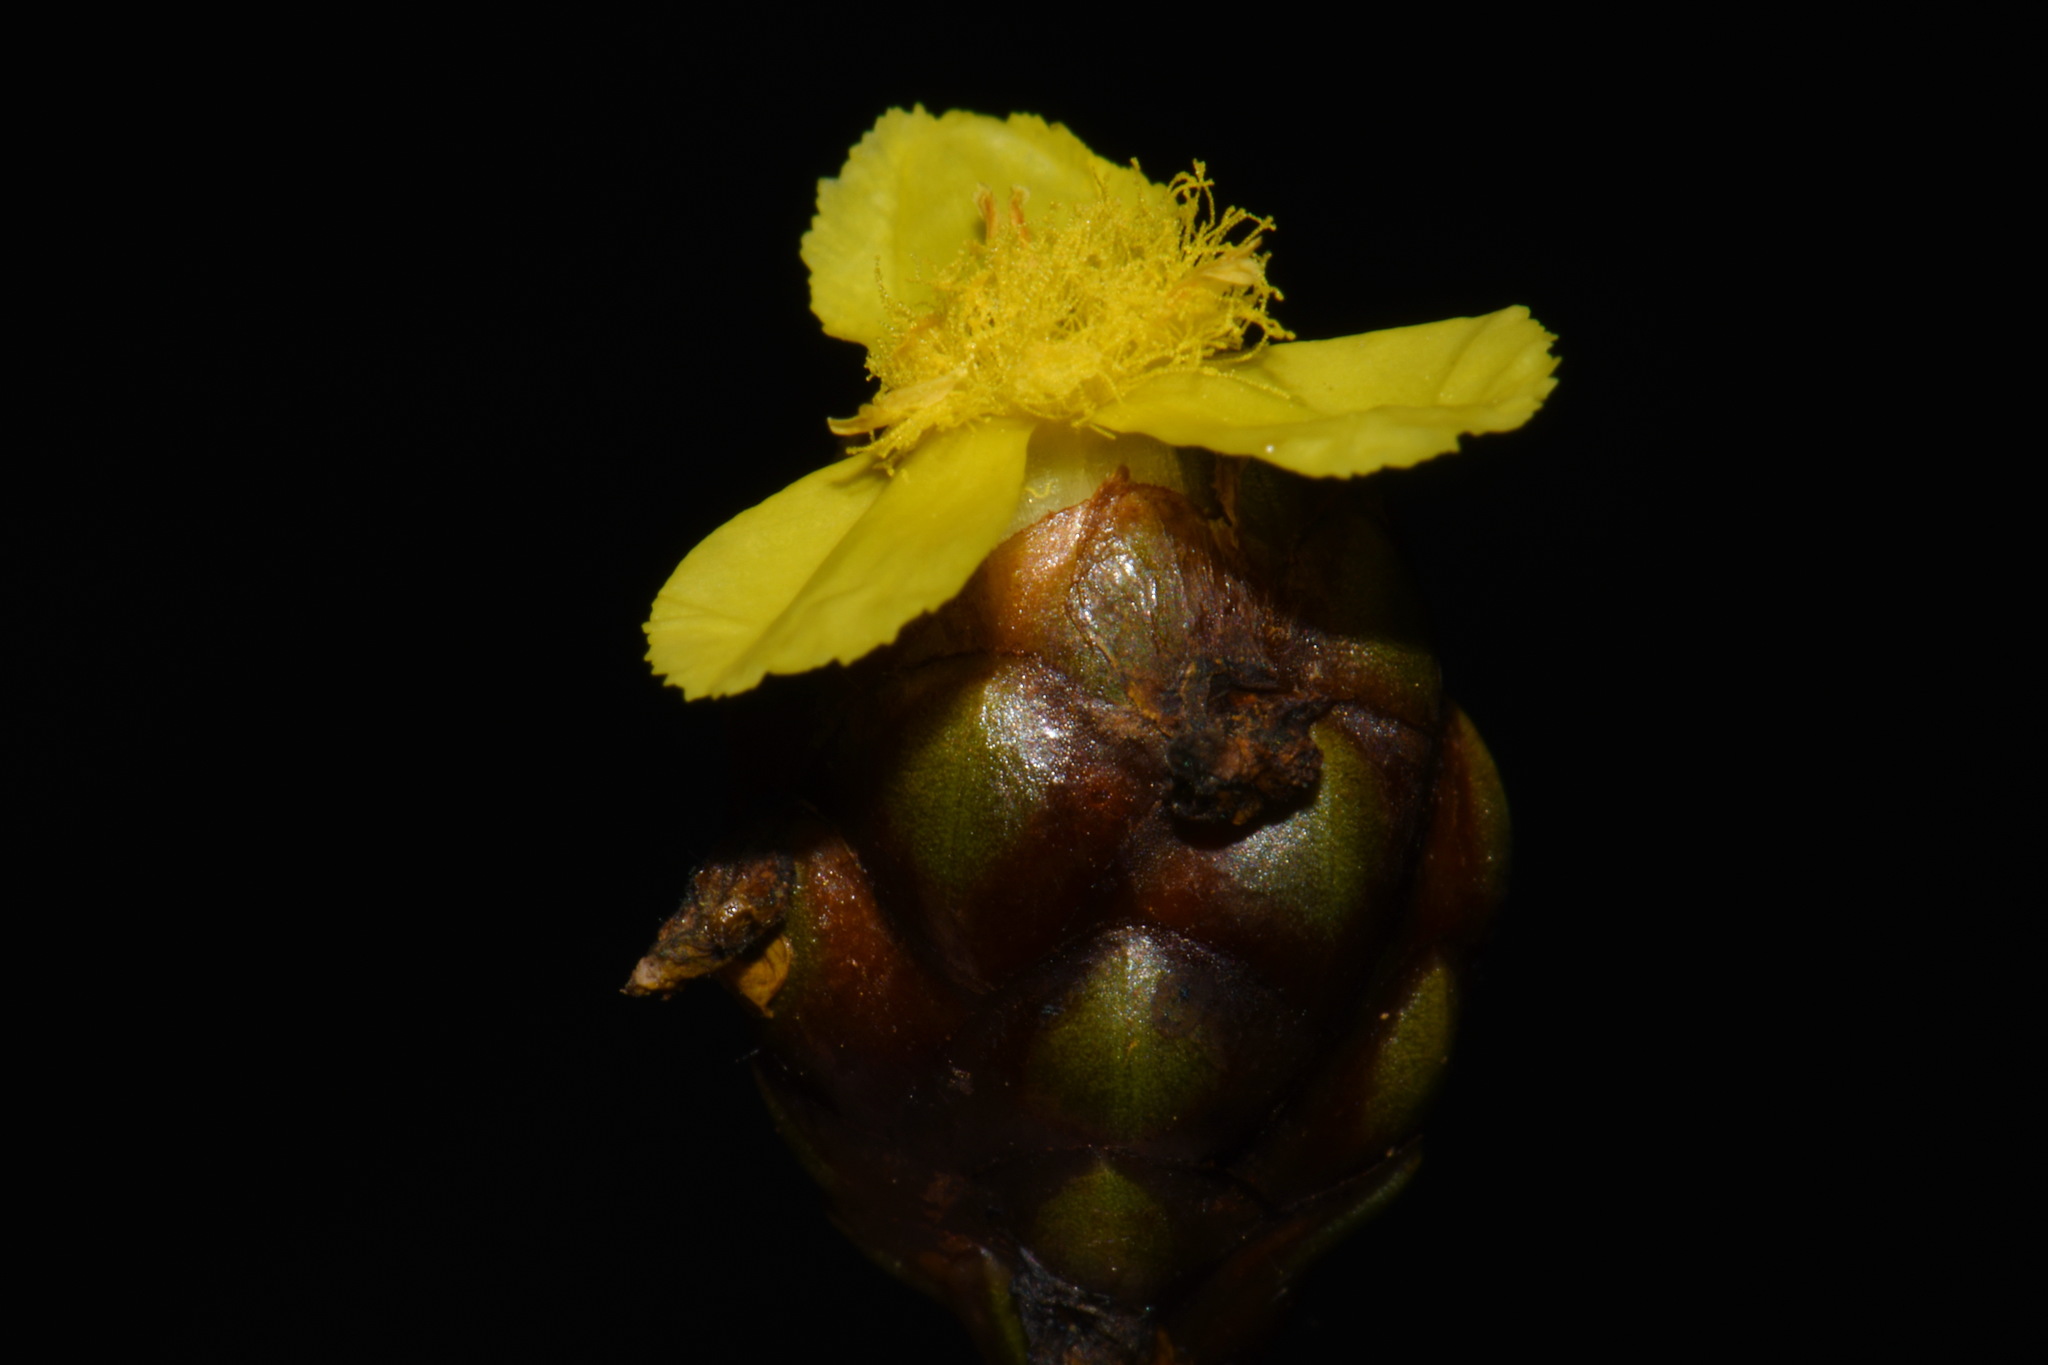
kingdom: Plantae
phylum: Tracheophyta
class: Liliopsida
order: Poales
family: Xyridaceae
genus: Xyris
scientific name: Xyris laxifolia
